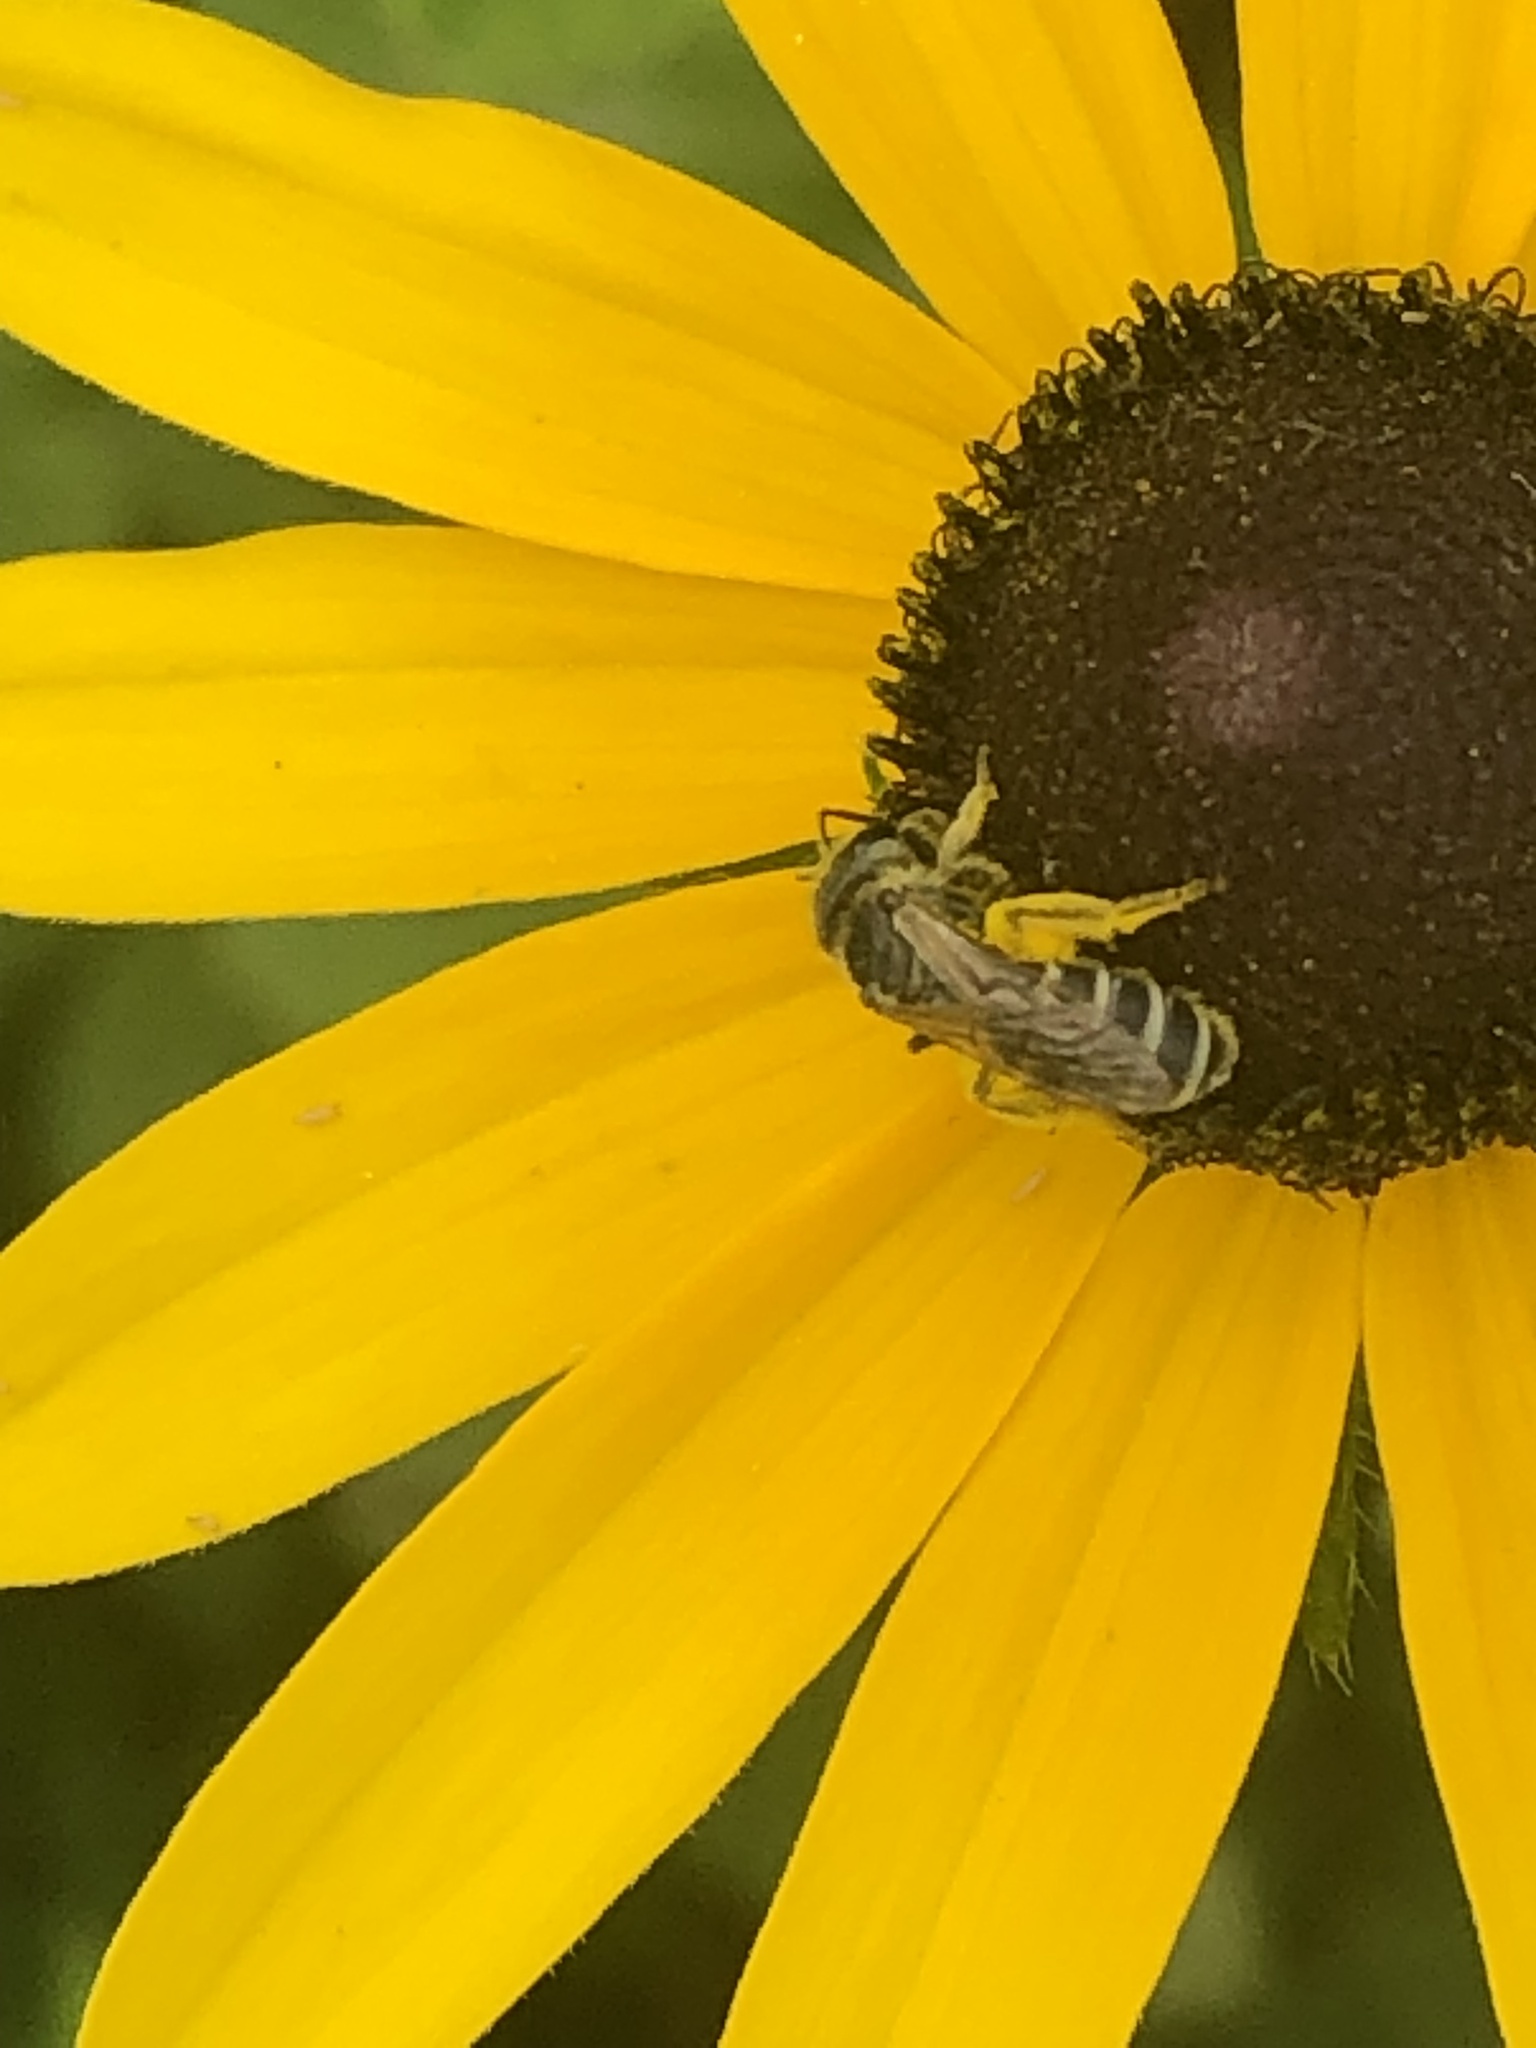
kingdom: Animalia
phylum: Arthropoda
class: Insecta
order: Hymenoptera
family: Halictidae
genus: Halictus
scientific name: Halictus ligatus
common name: Ligated furrow bee
